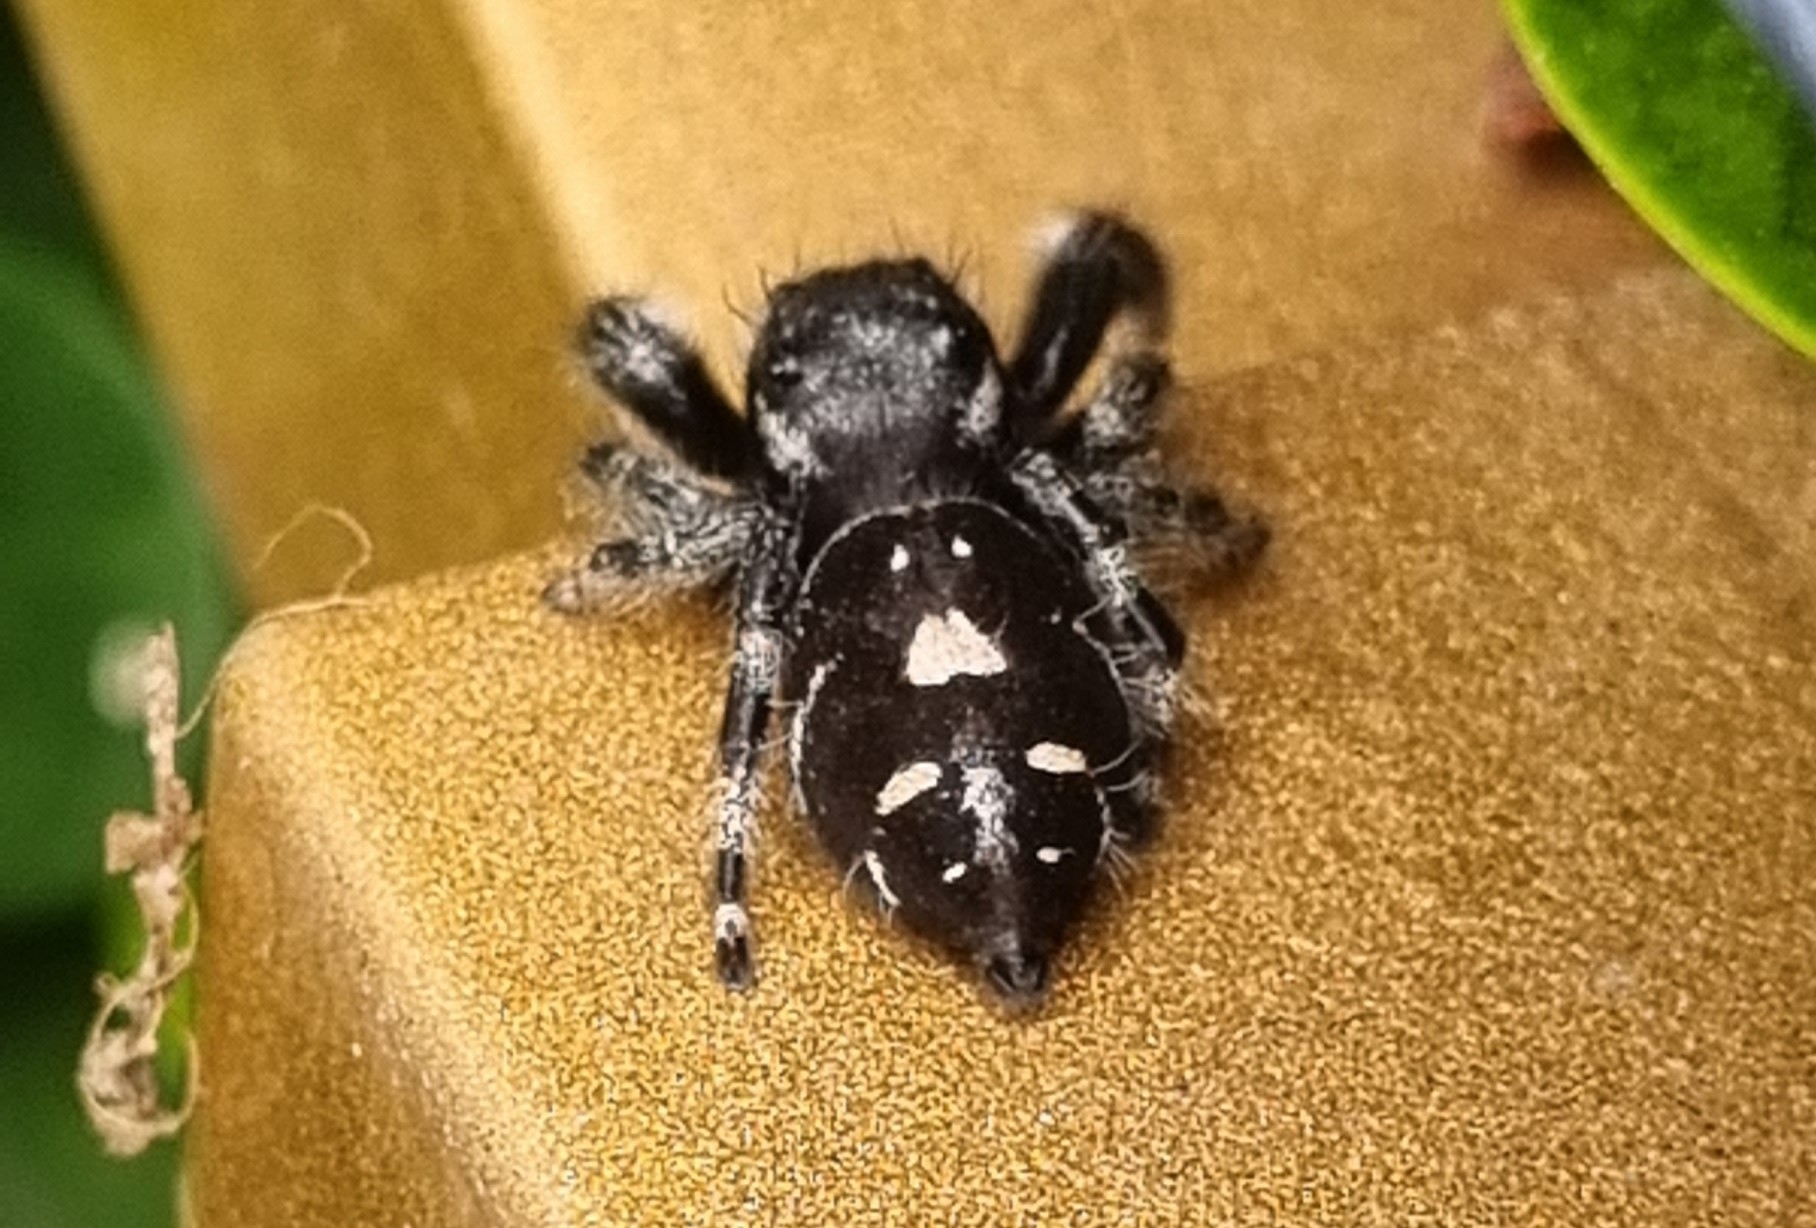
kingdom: Animalia
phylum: Arthropoda
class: Arachnida
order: Araneae
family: Salticidae
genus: Phidippus
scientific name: Phidippus audax
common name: Bold jumper
